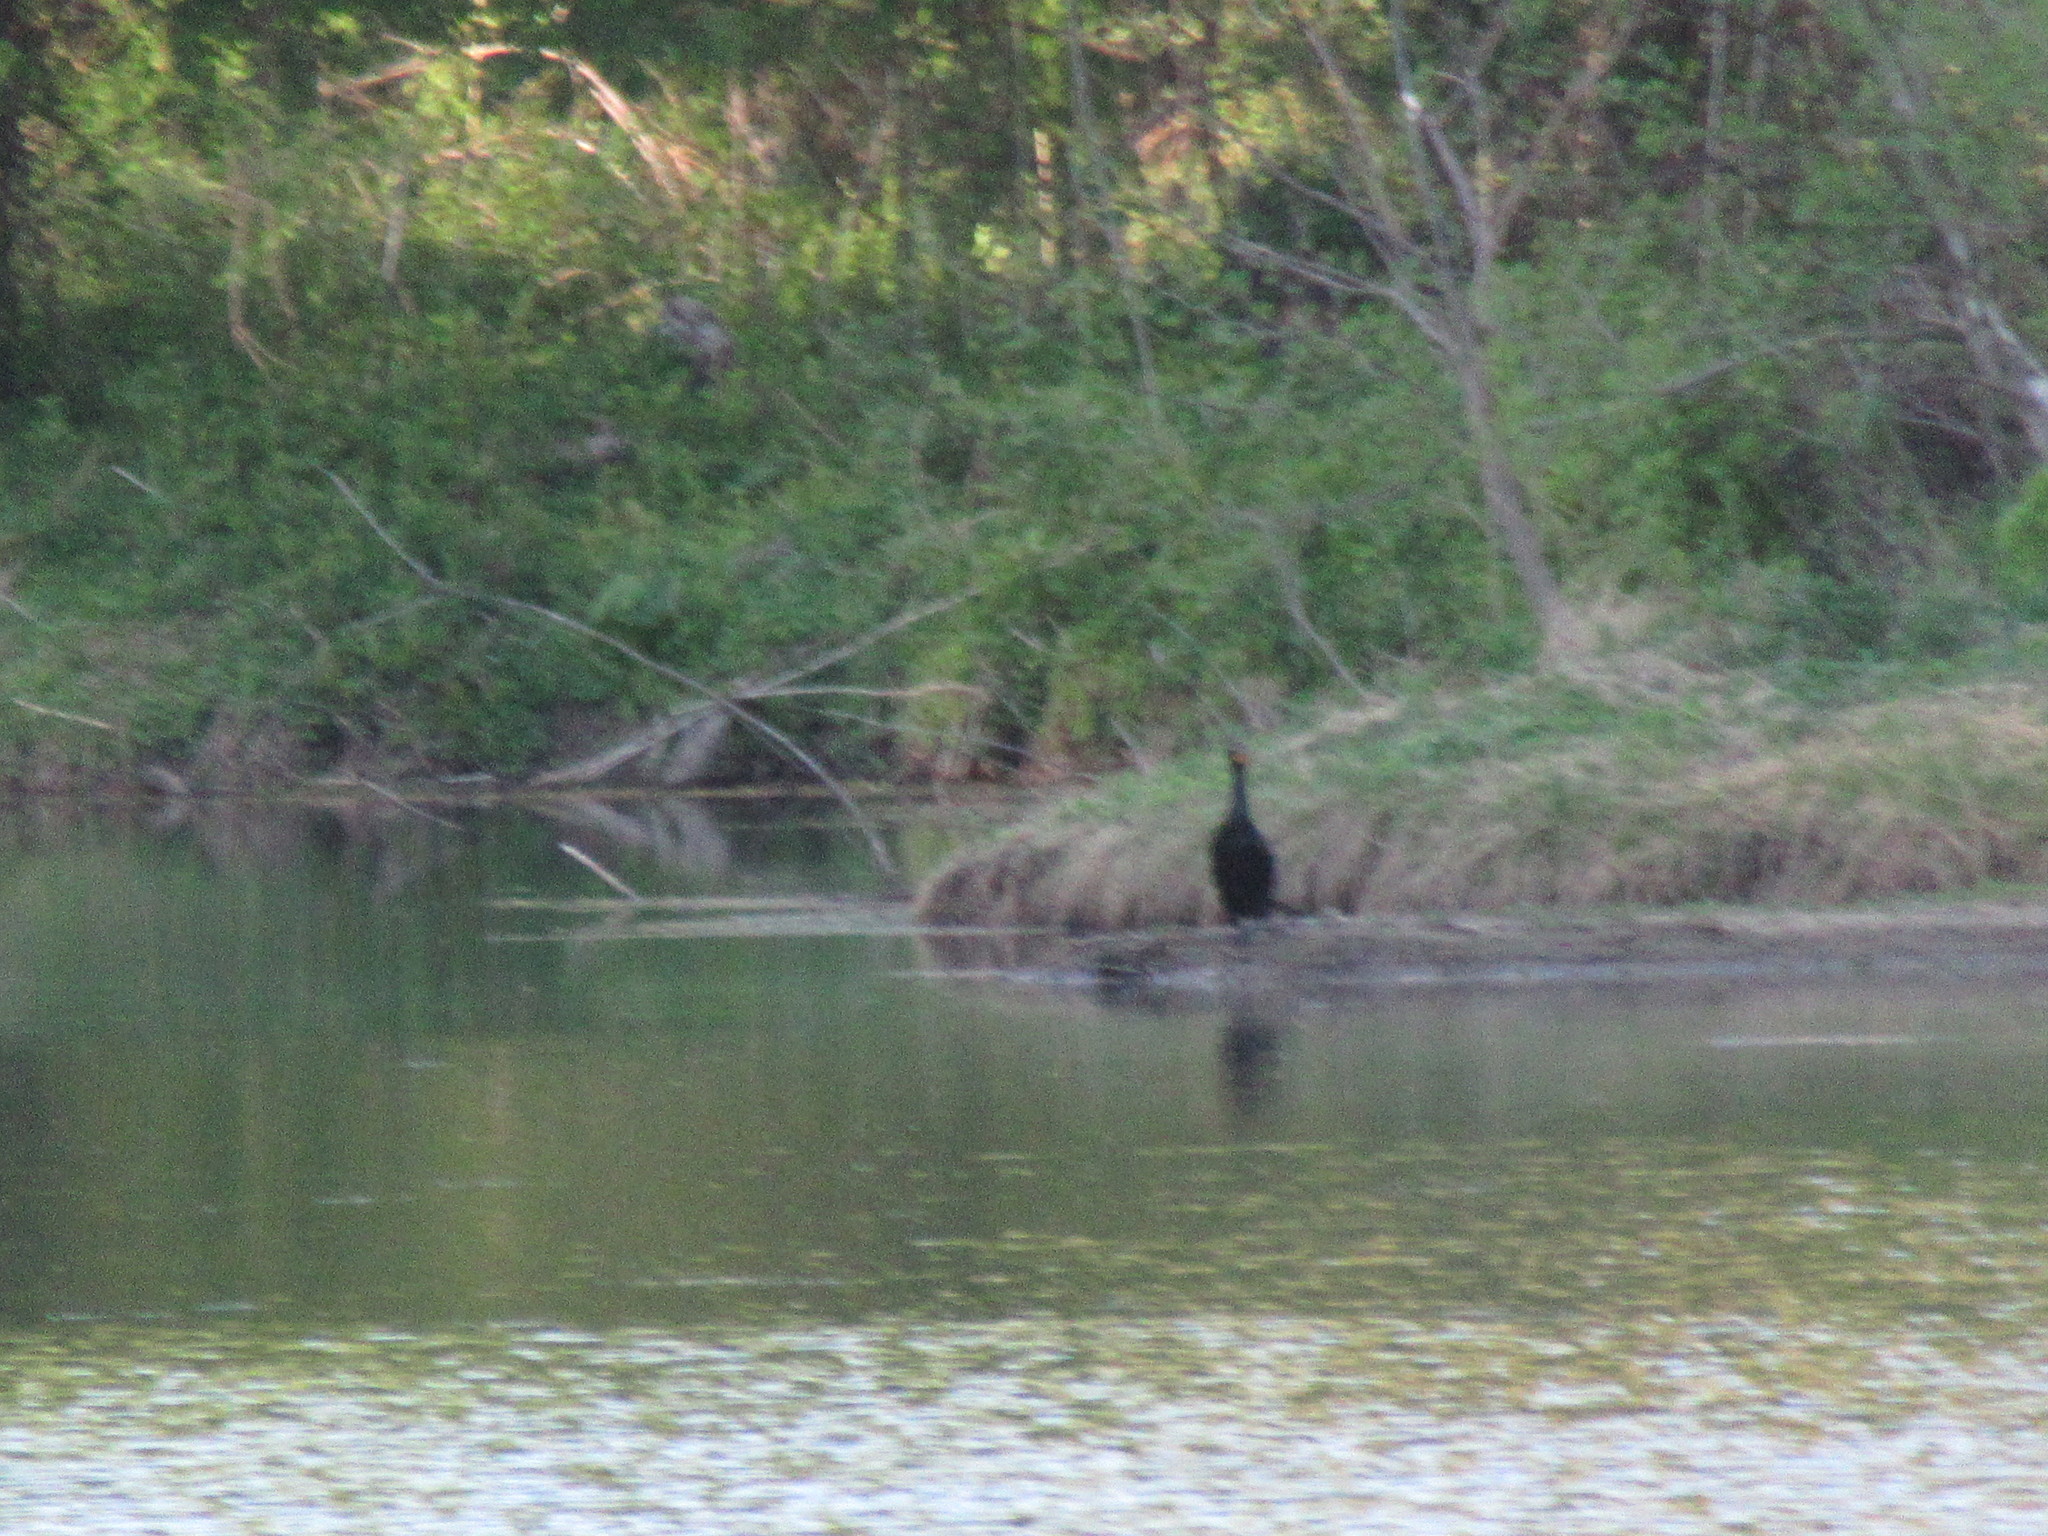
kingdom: Animalia
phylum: Chordata
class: Aves
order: Suliformes
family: Phalacrocoracidae
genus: Phalacrocorax
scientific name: Phalacrocorax auritus
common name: Double-crested cormorant
